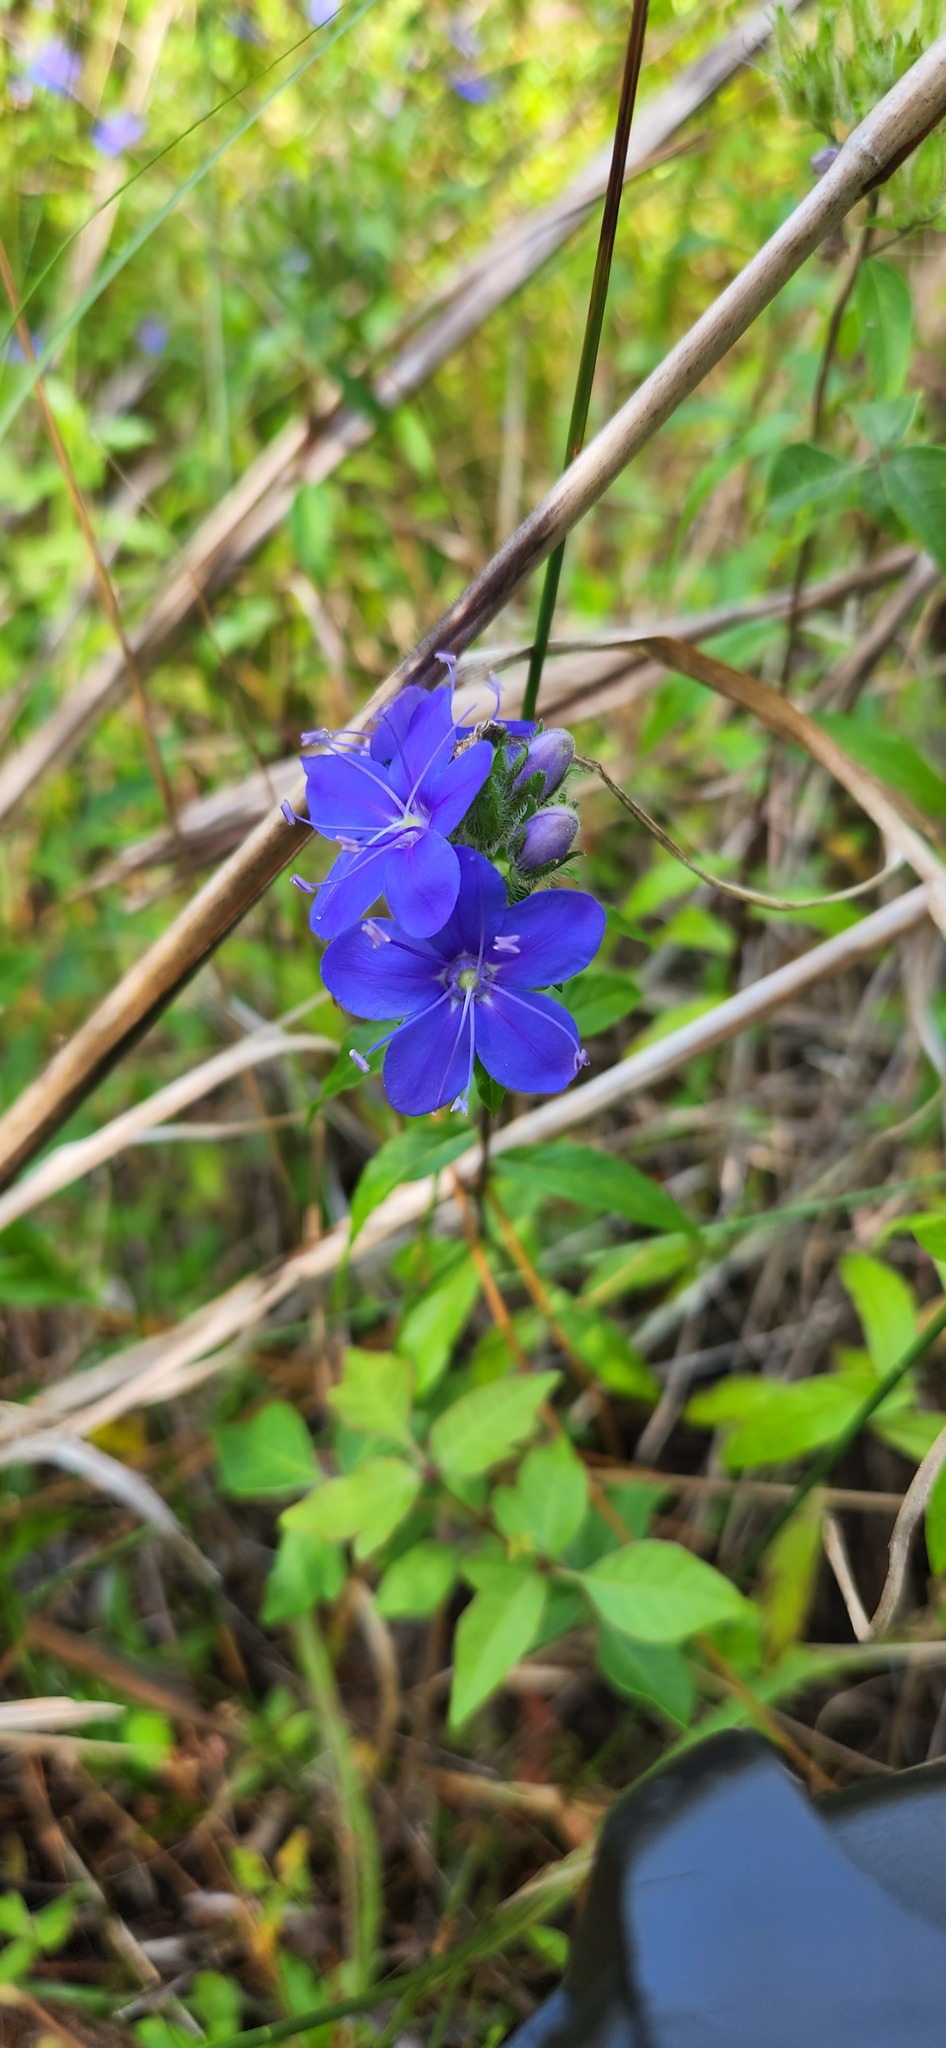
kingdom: Plantae
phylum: Tracheophyta
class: Magnoliopsida
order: Solanales
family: Hydroleaceae
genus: Hydrolea
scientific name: Hydrolea corymbosa
